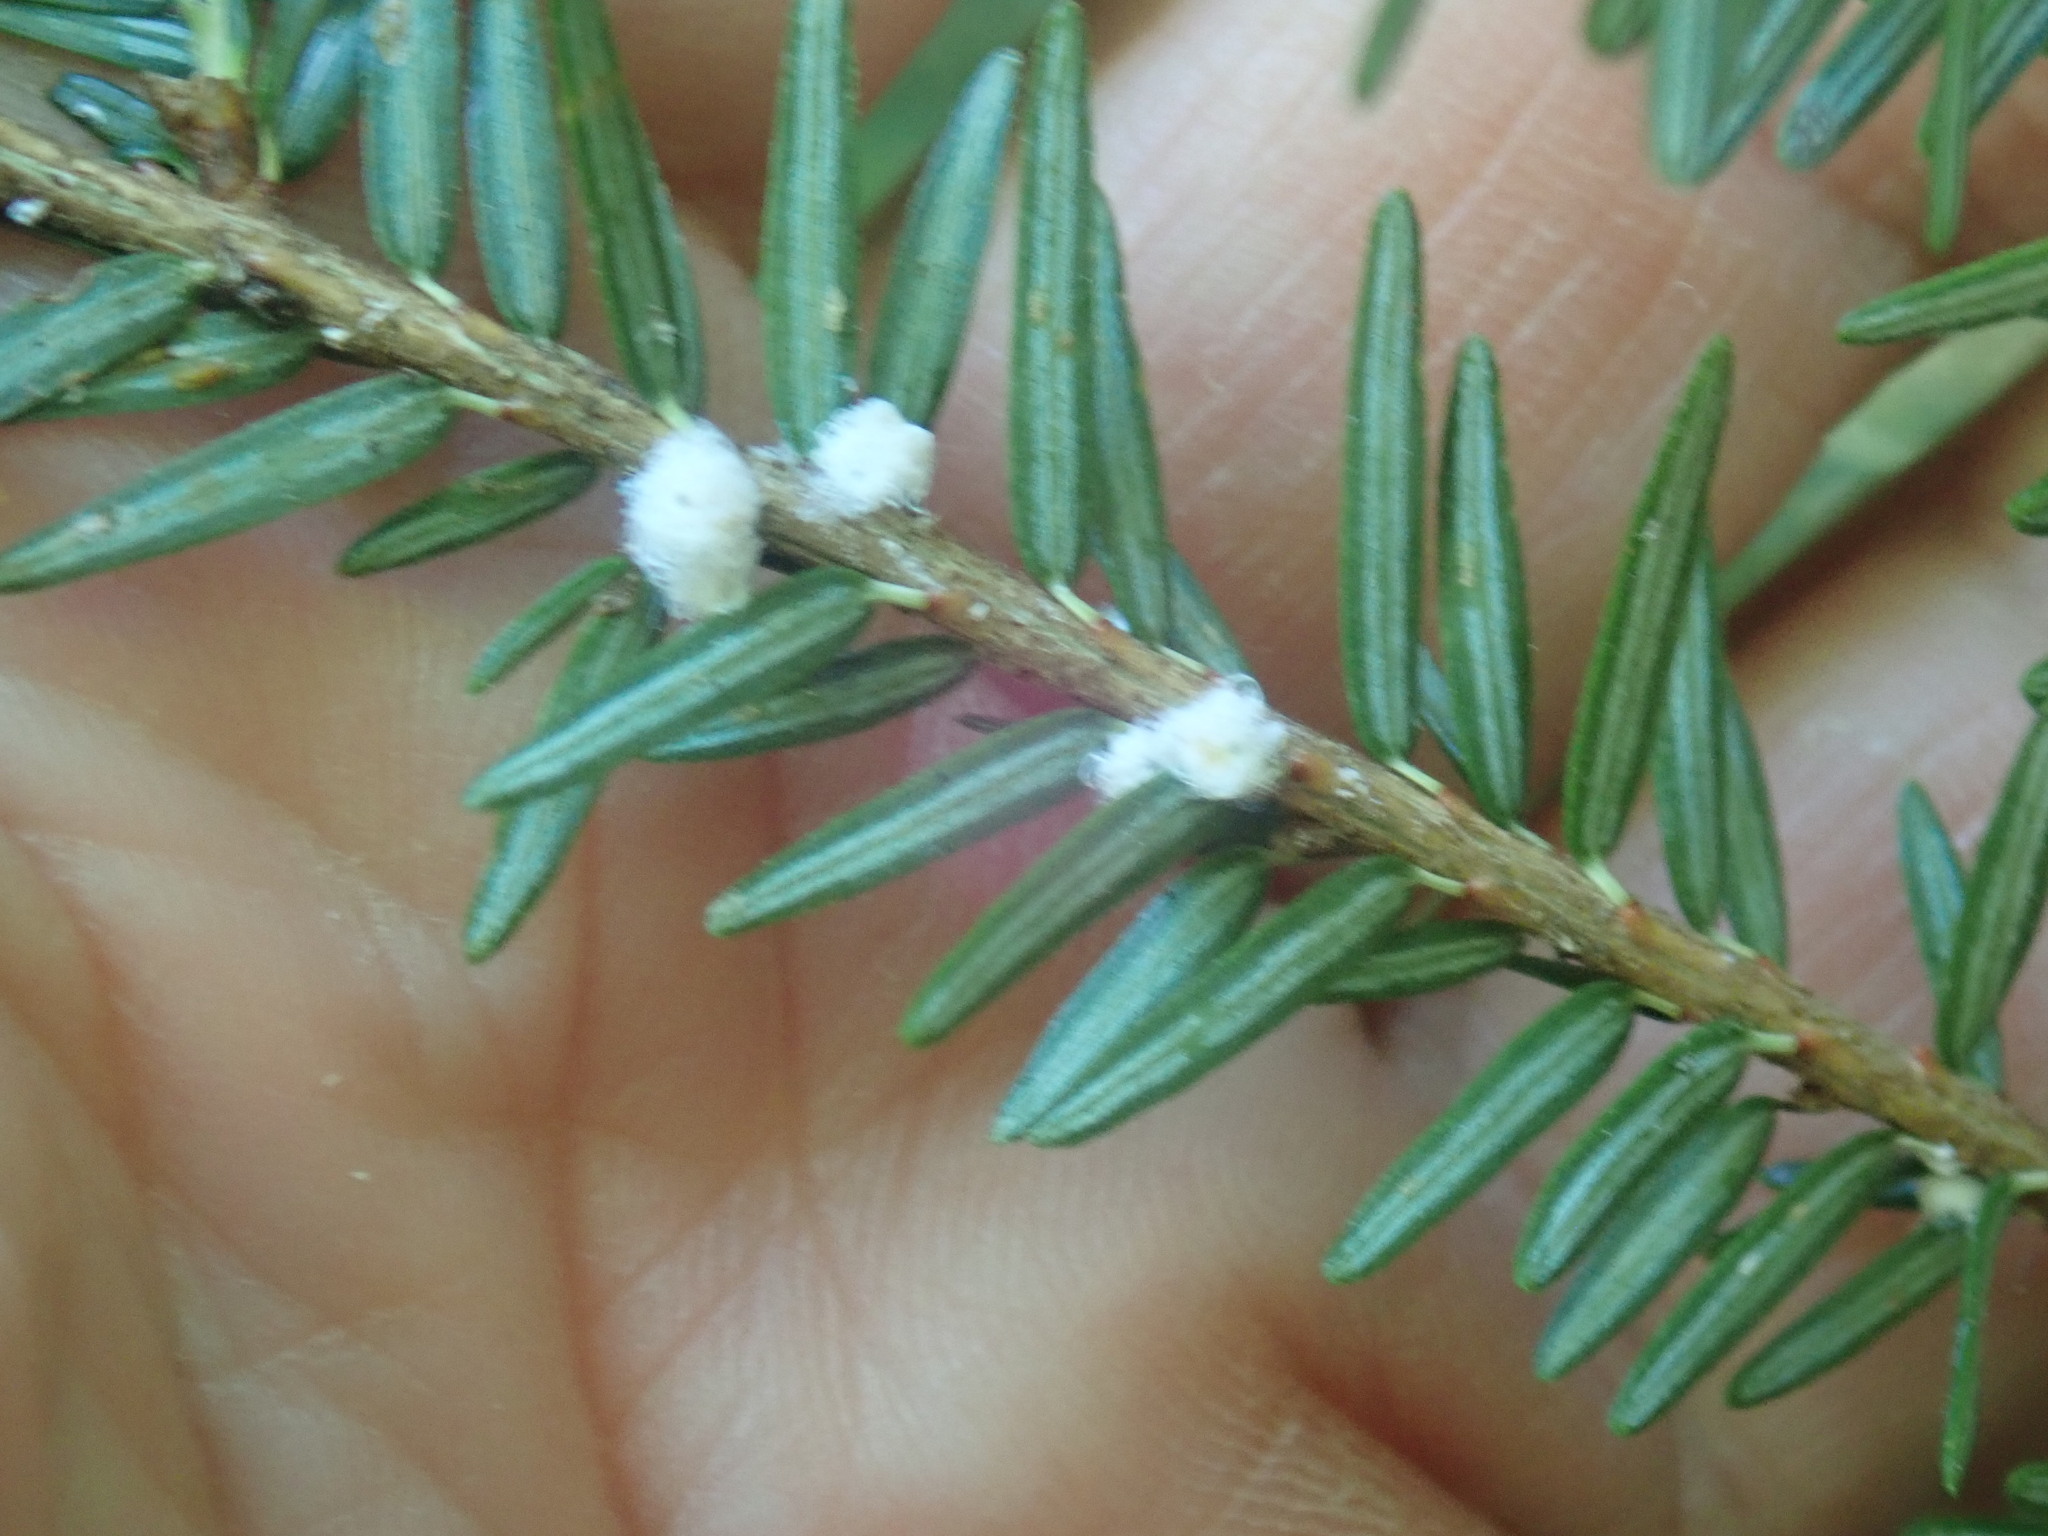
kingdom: Animalia
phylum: Arthropoda
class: Insecta
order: Hemiptera
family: Adelgidae
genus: Adelges
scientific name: Adelges tsugae
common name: Hemlock woolly adelgid
